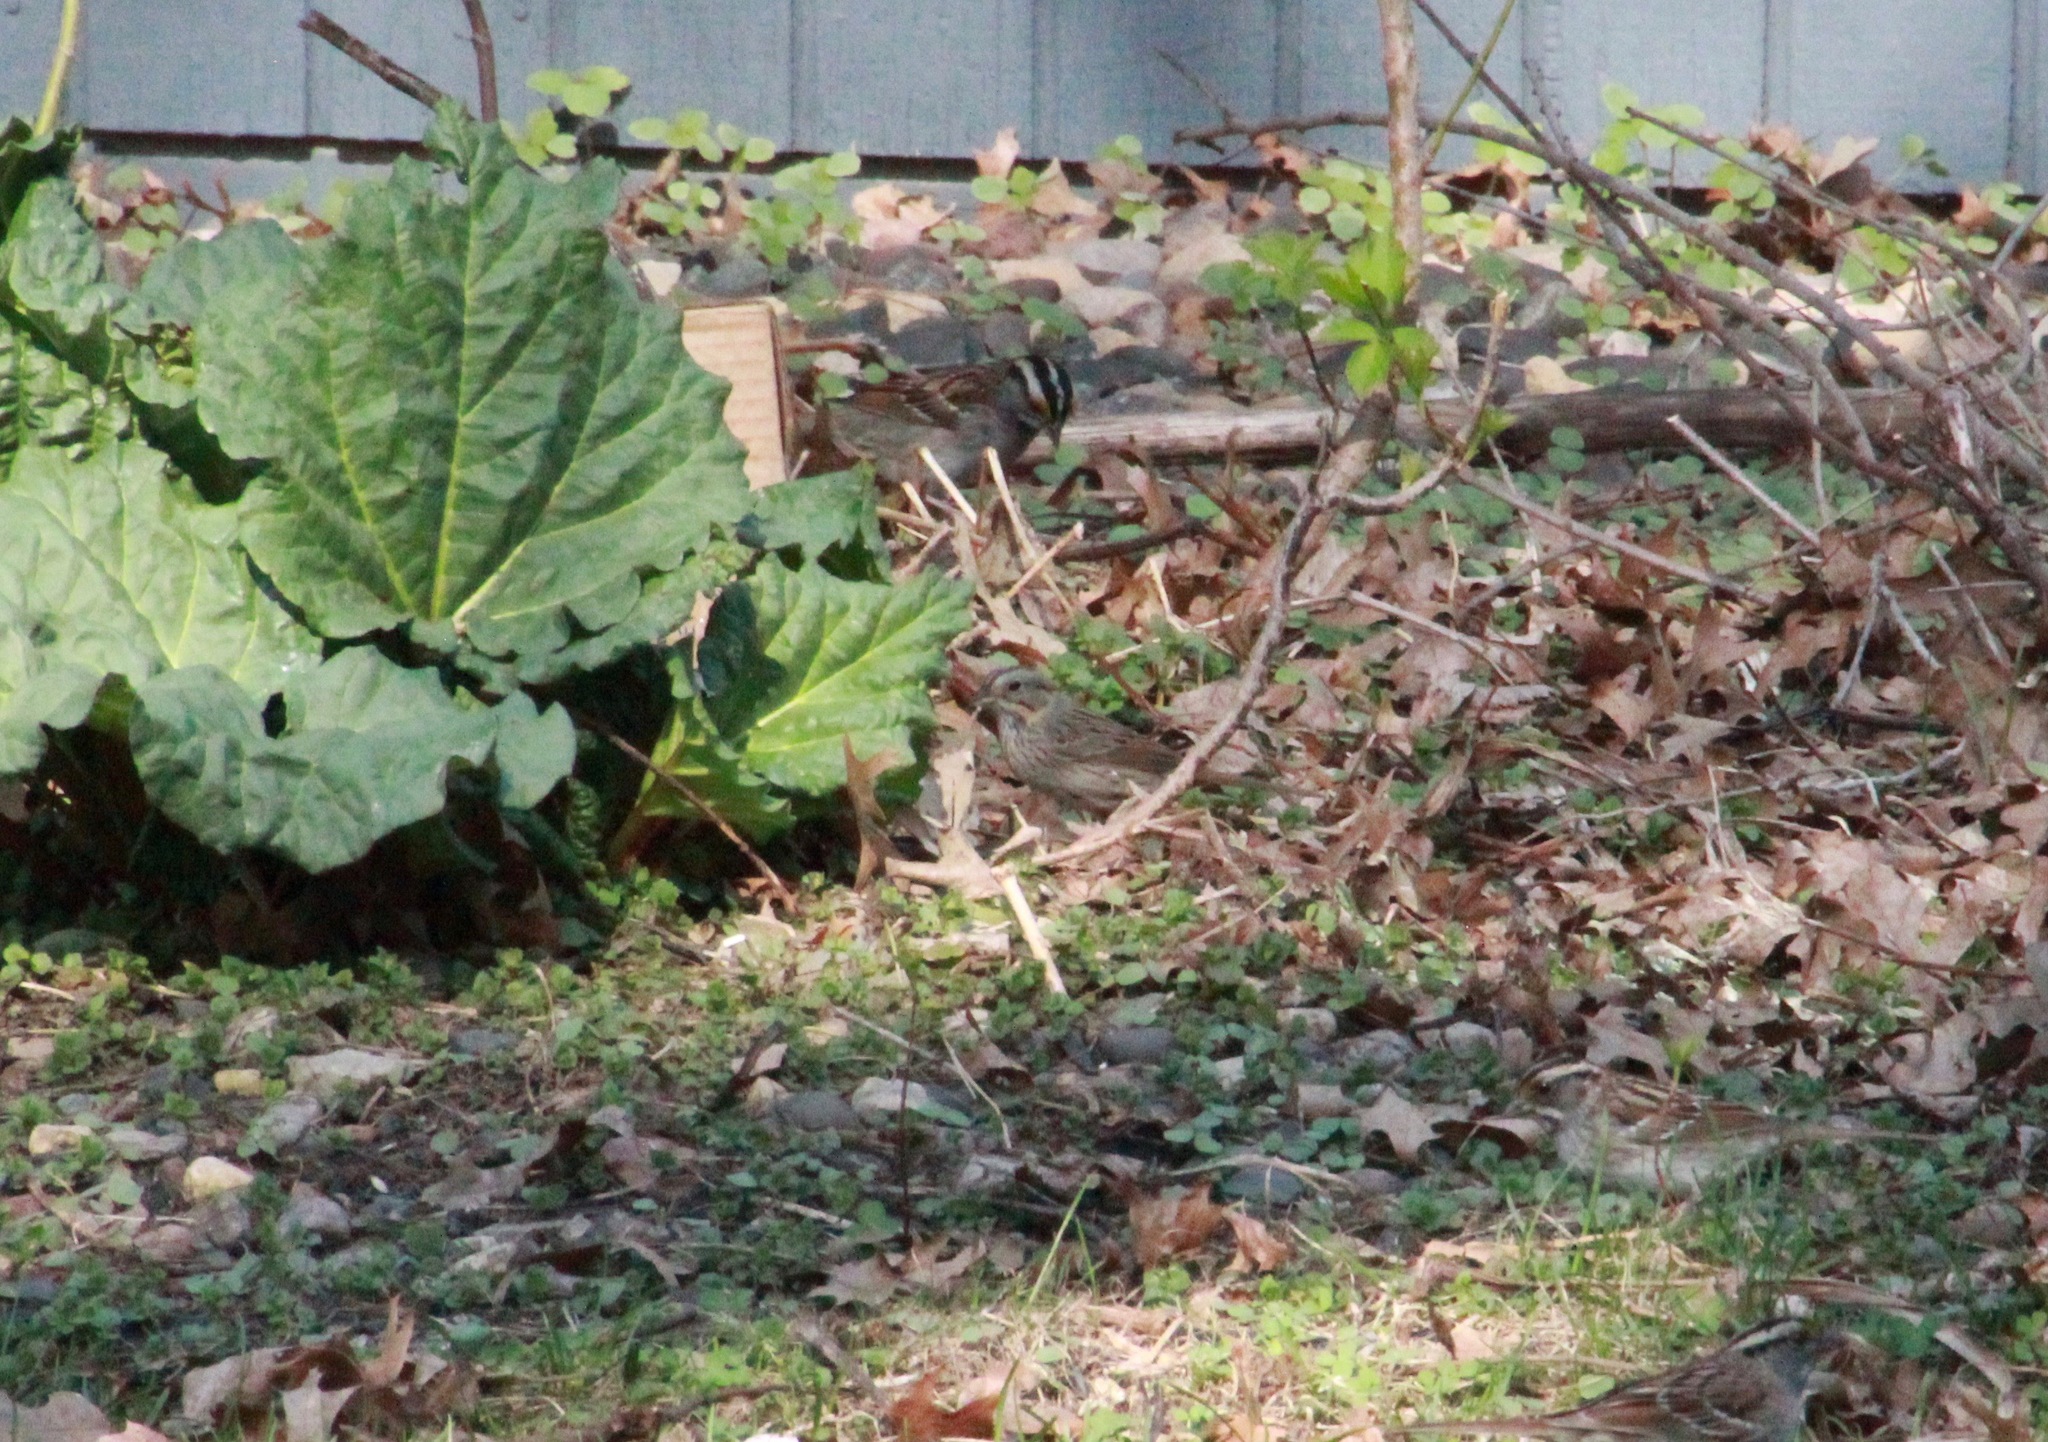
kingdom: Animalia
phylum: Chordata
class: Aves
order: Passeriformes
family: Passerellidae
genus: Melospiza
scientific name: Melospiza lincolnii
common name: Lincoln's sparrow
